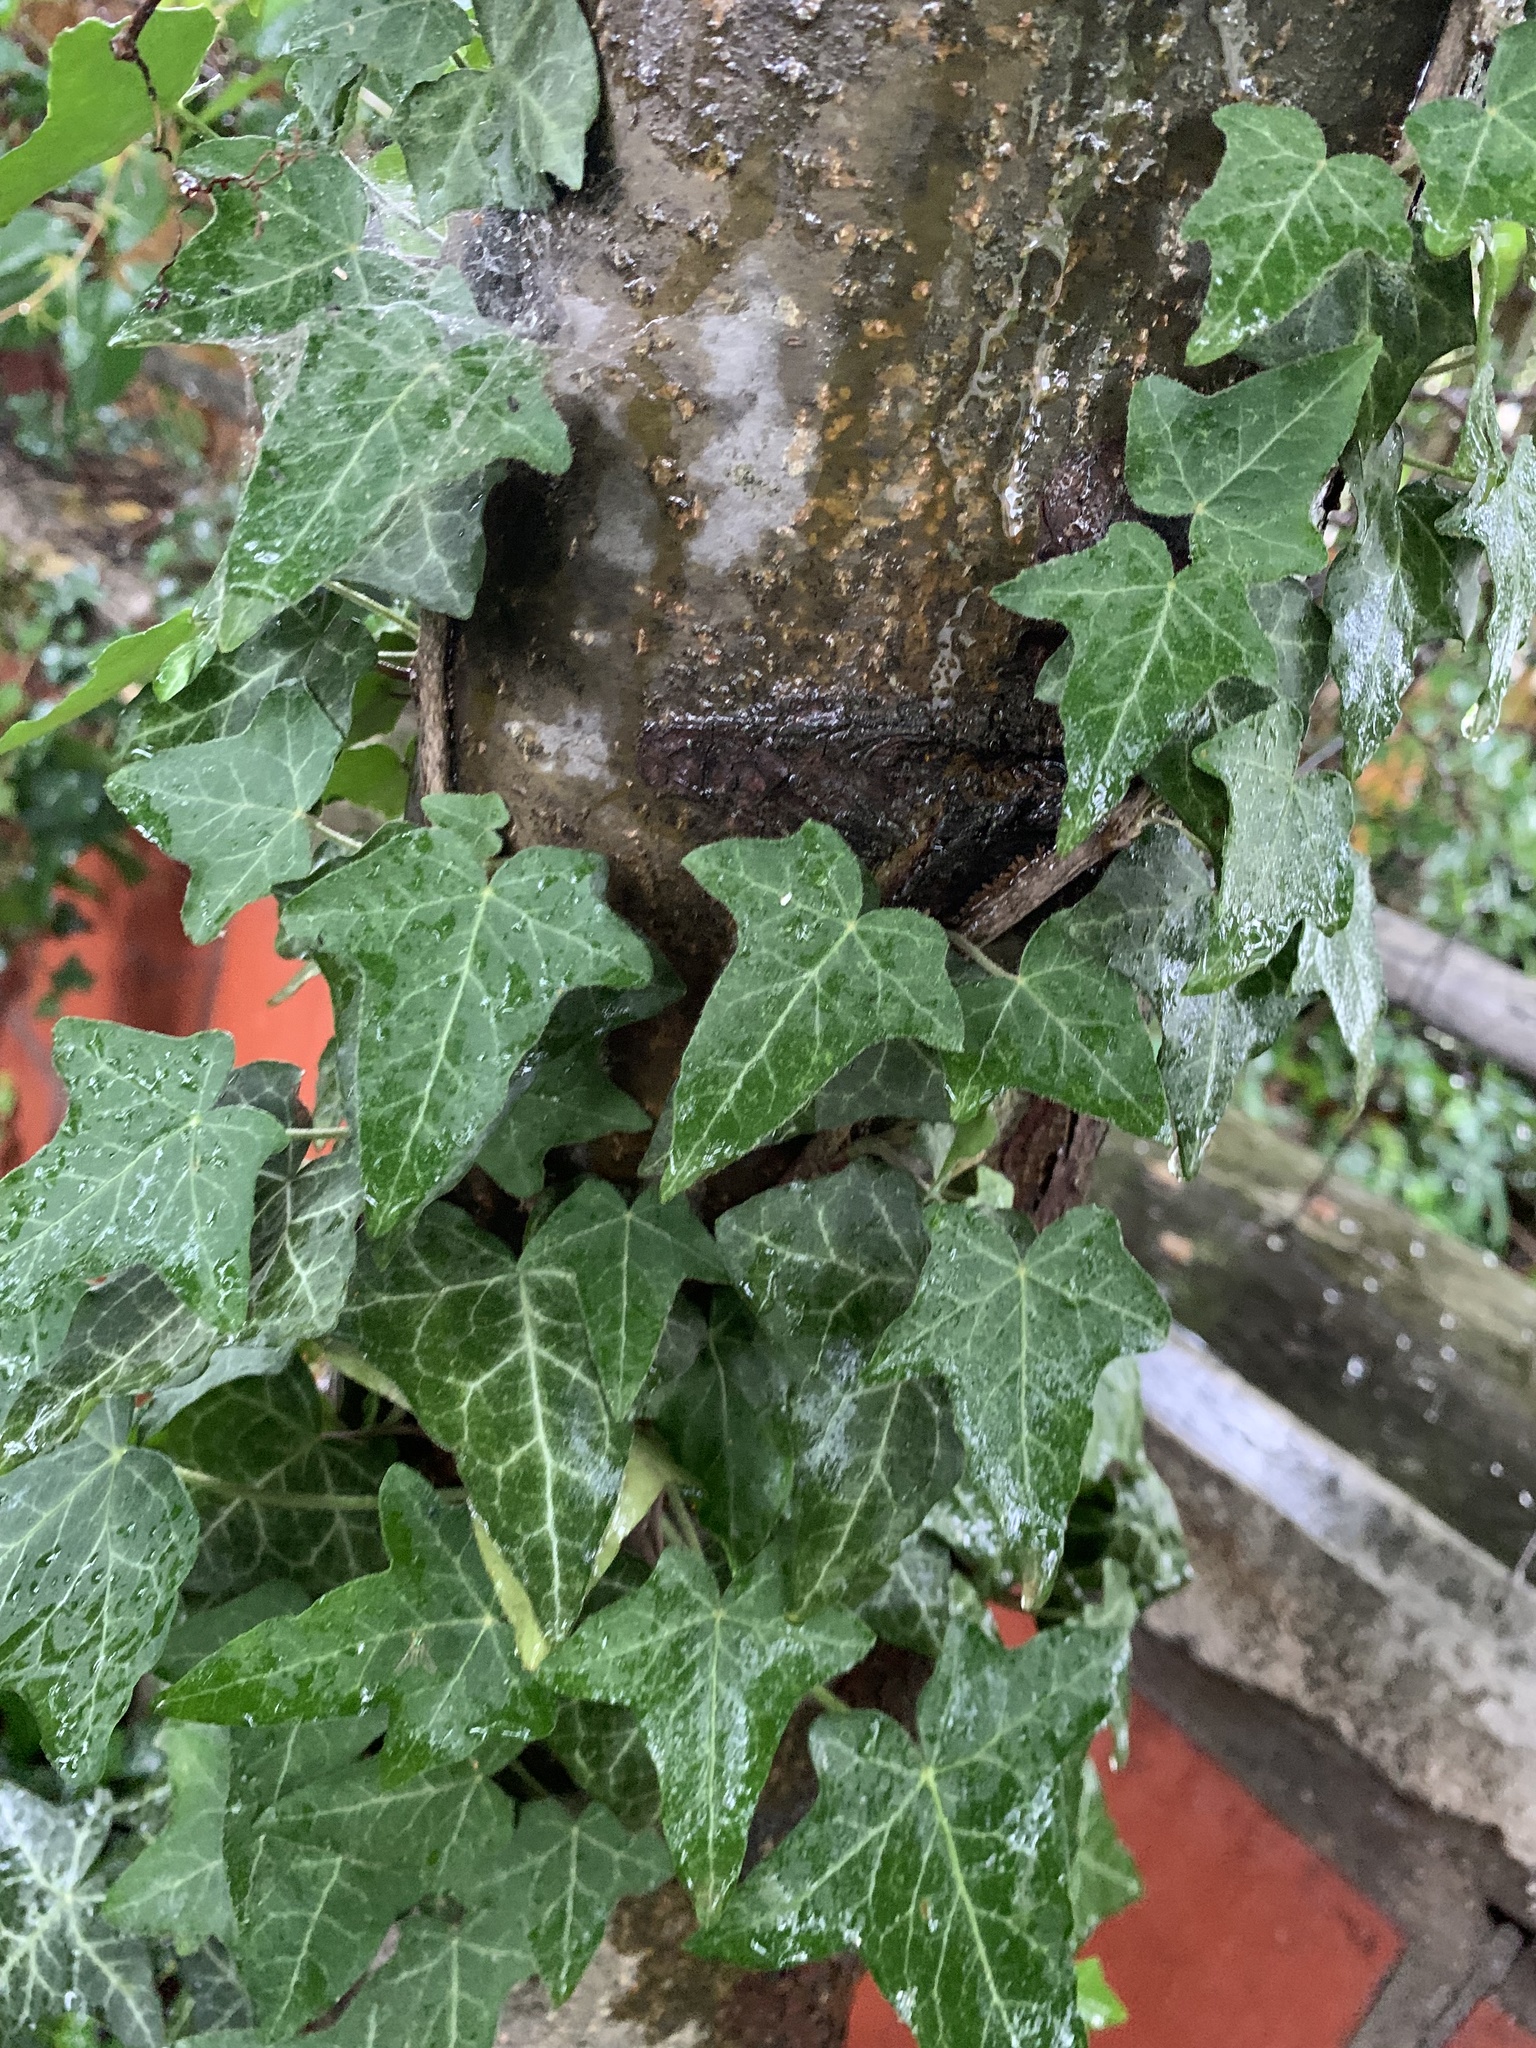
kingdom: Plantae
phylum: Tracheophyta
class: Magnoliopsida
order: Apiales
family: Araliaceae
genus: Hedera
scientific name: Hedera helix
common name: Ivy
